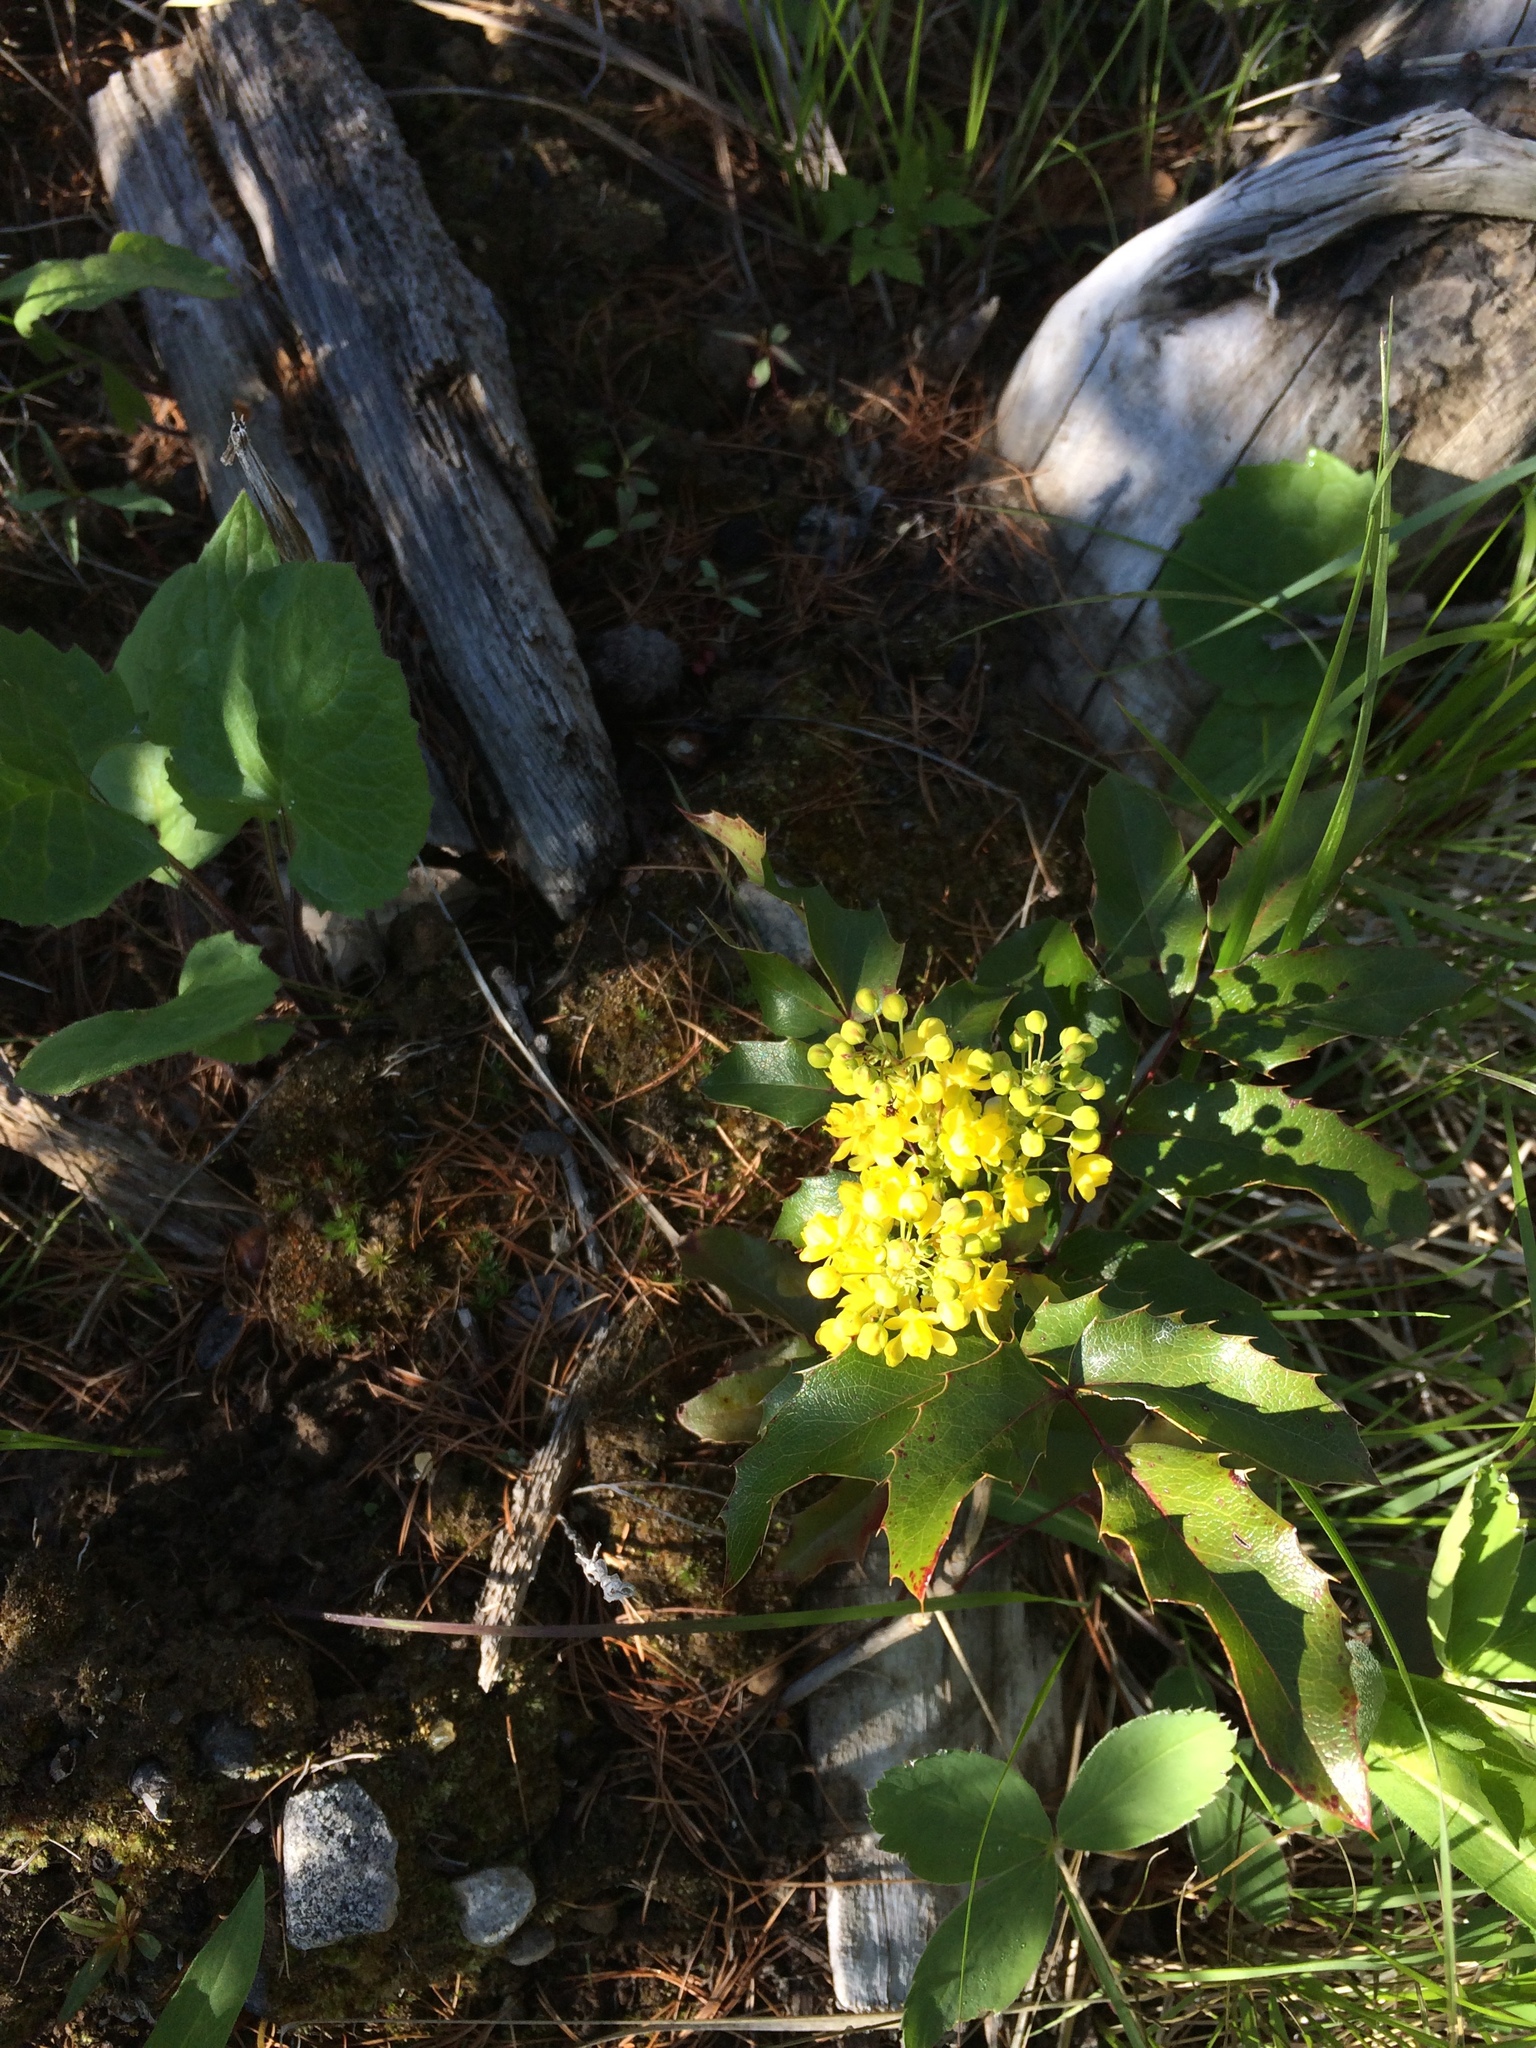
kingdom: Plantae
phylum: Tracheophyta
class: Magnoliopsida
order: Ranunculales
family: Berberidaceae
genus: Mahonia
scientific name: Mahonia aquifolium
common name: Oregon-grape
